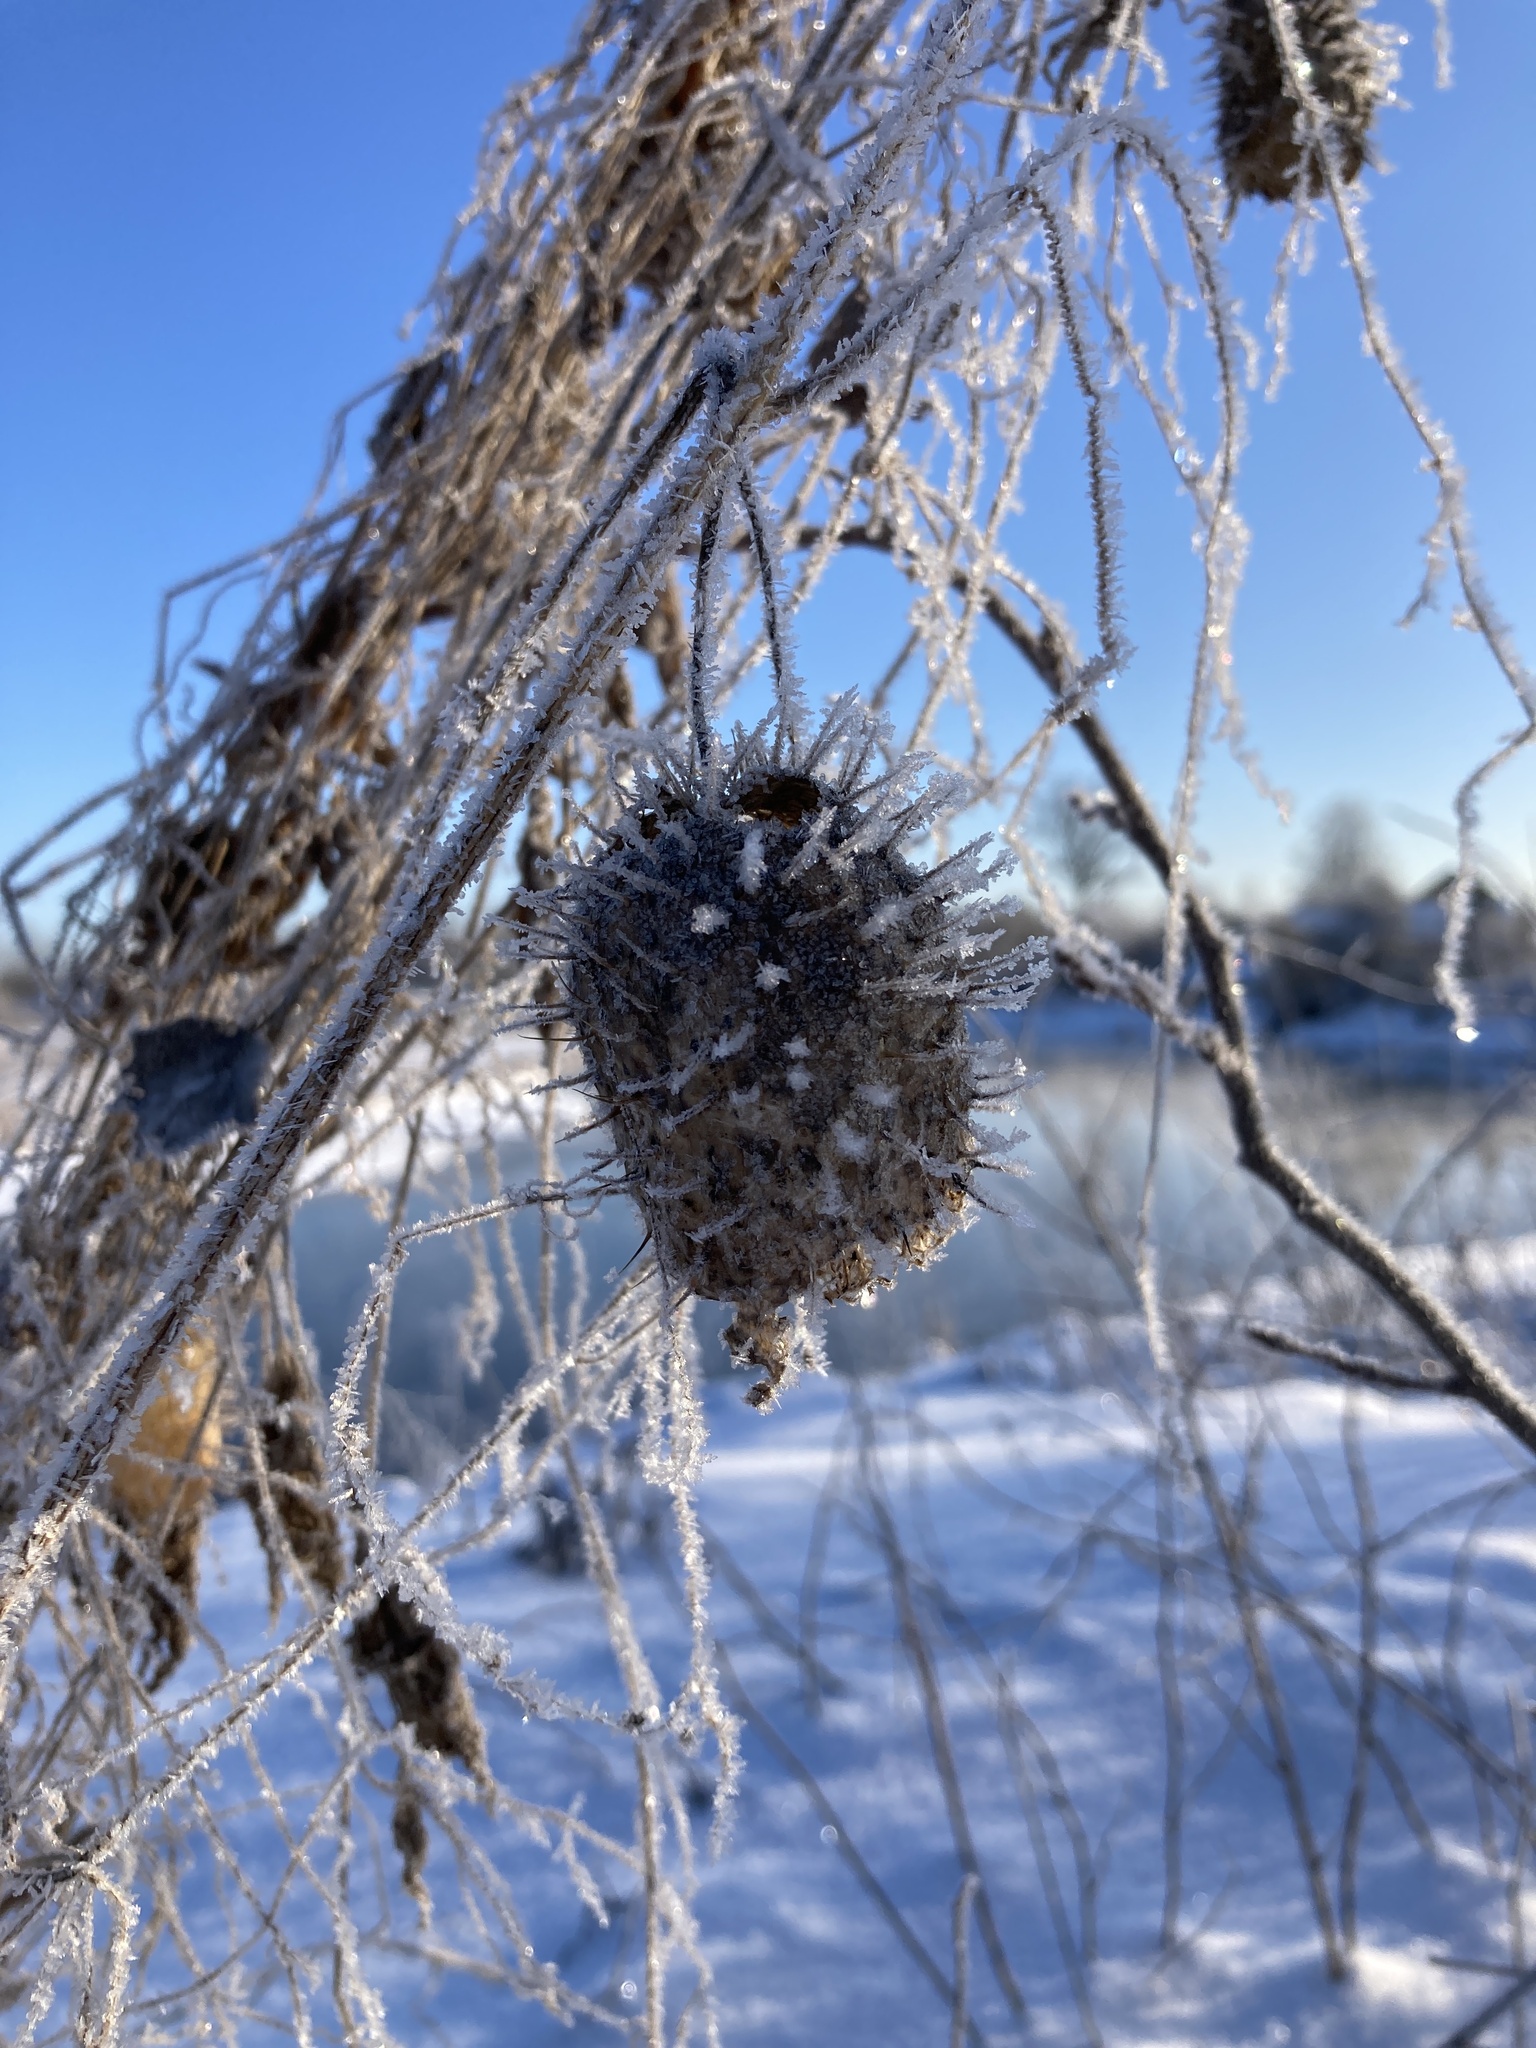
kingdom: Plantae
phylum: Tracheophyta
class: Magnoliopsida
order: Cucurbitales
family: Cucurbitaceae
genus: Echinocystis
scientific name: Echinocystis lobata
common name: Wild cucumber
